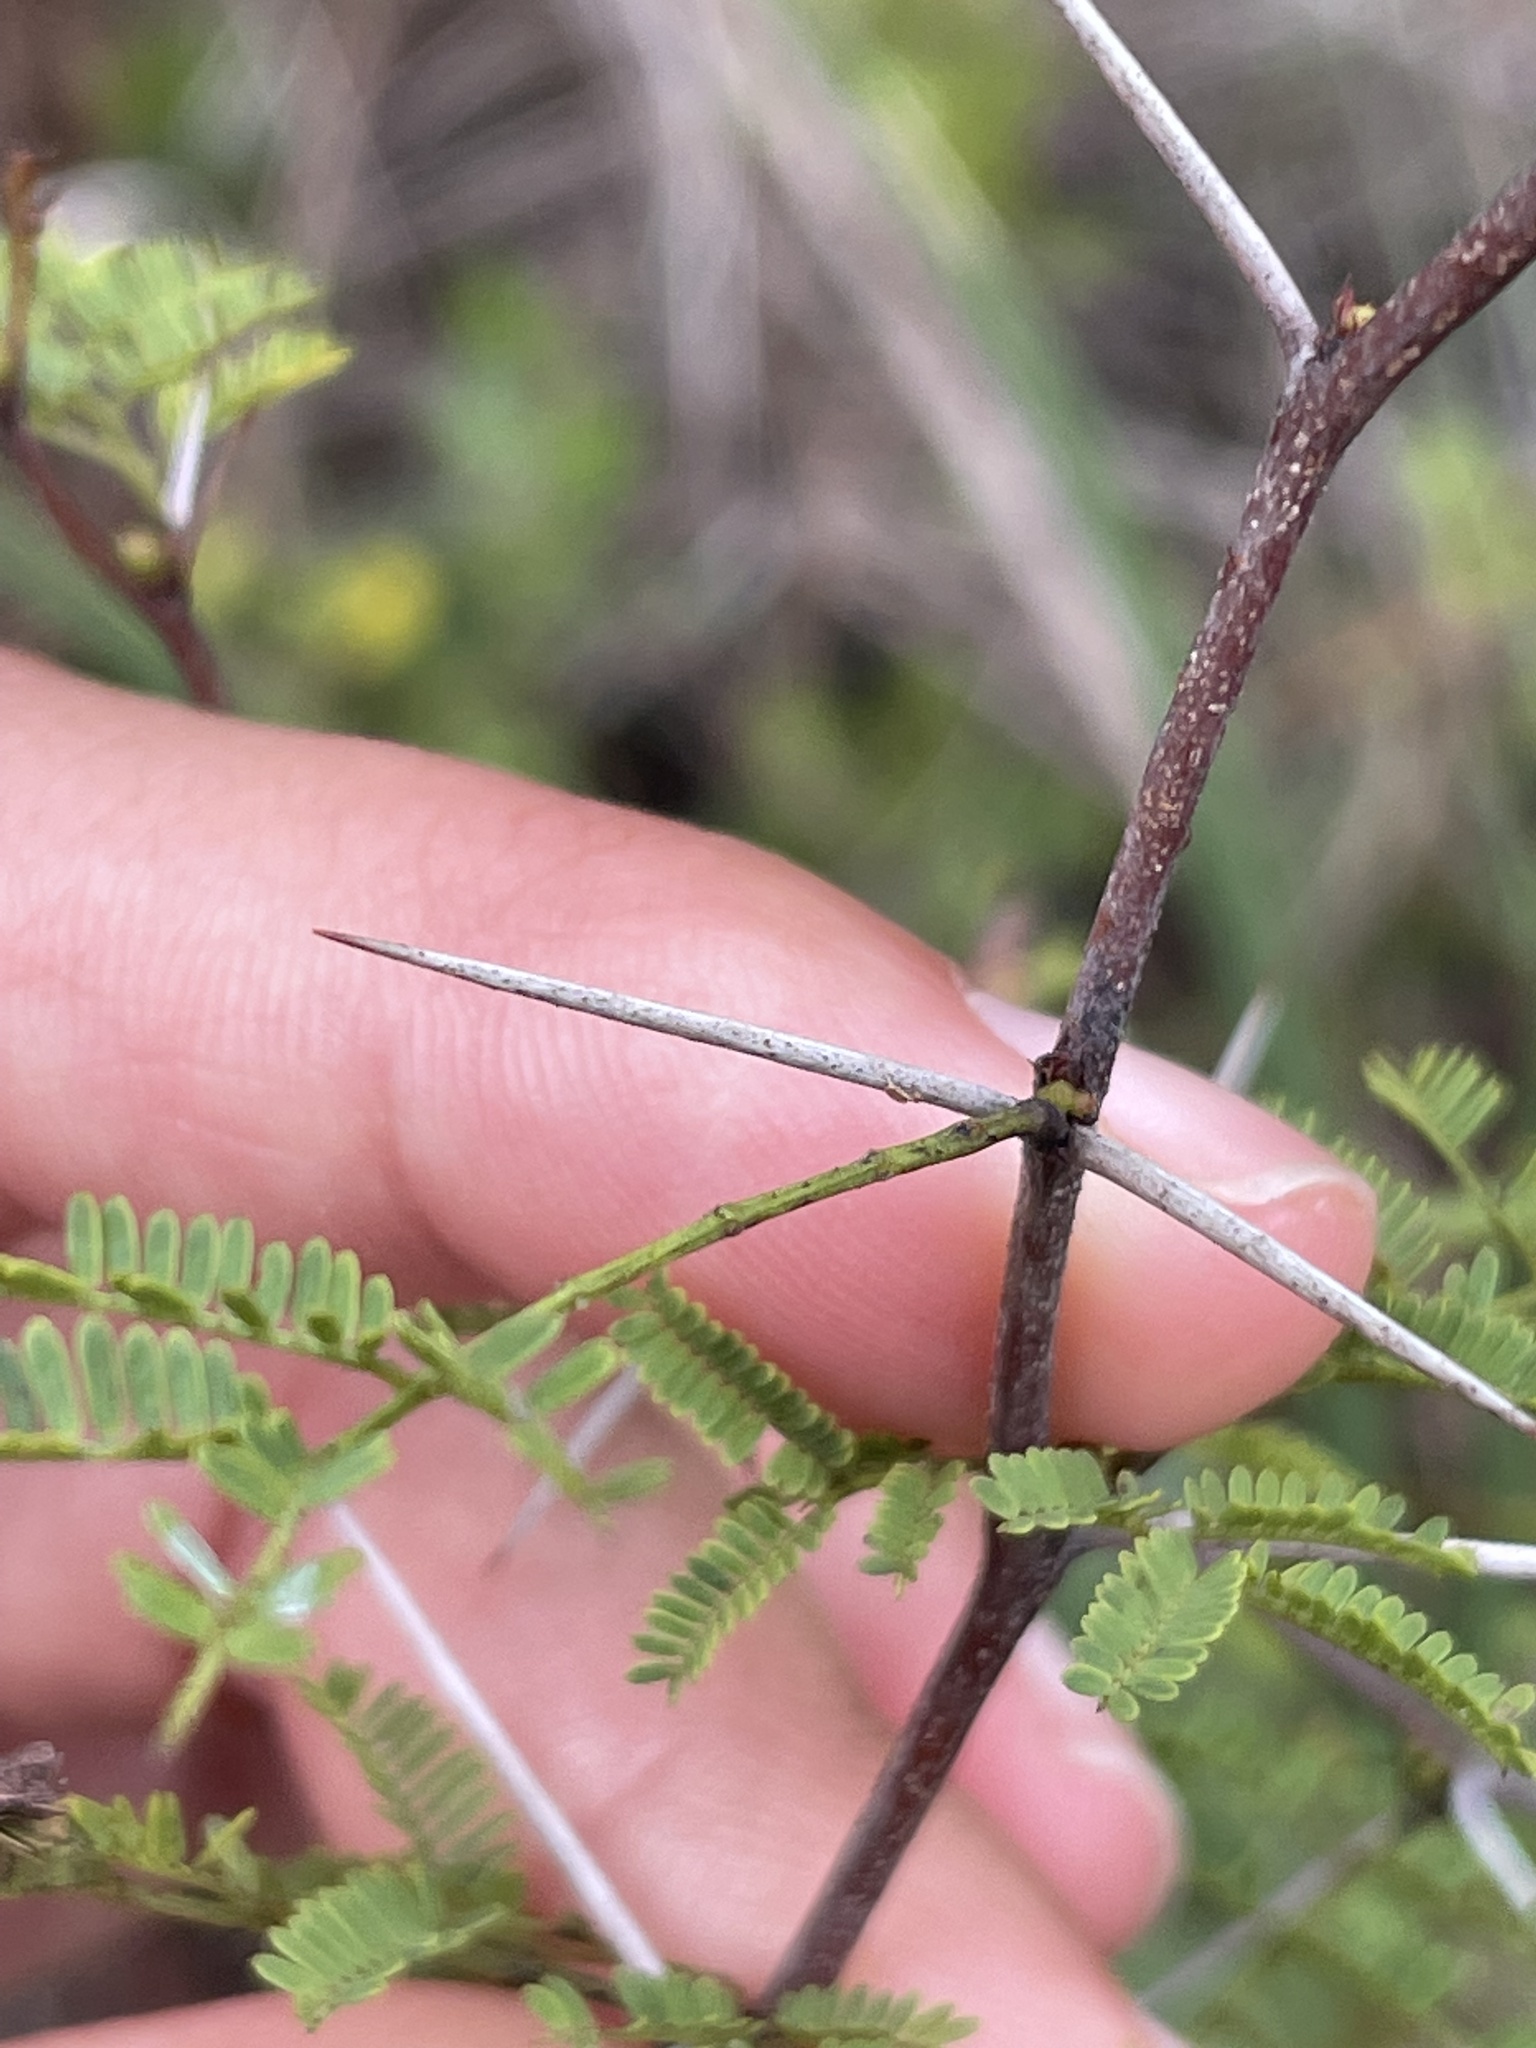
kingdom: Plantae
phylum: Tracheophyta
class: Magnoliopsida
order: Fabales
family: Fabaceae
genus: Vachellia
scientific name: Vachellia farnesiana
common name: Sweet acacia
